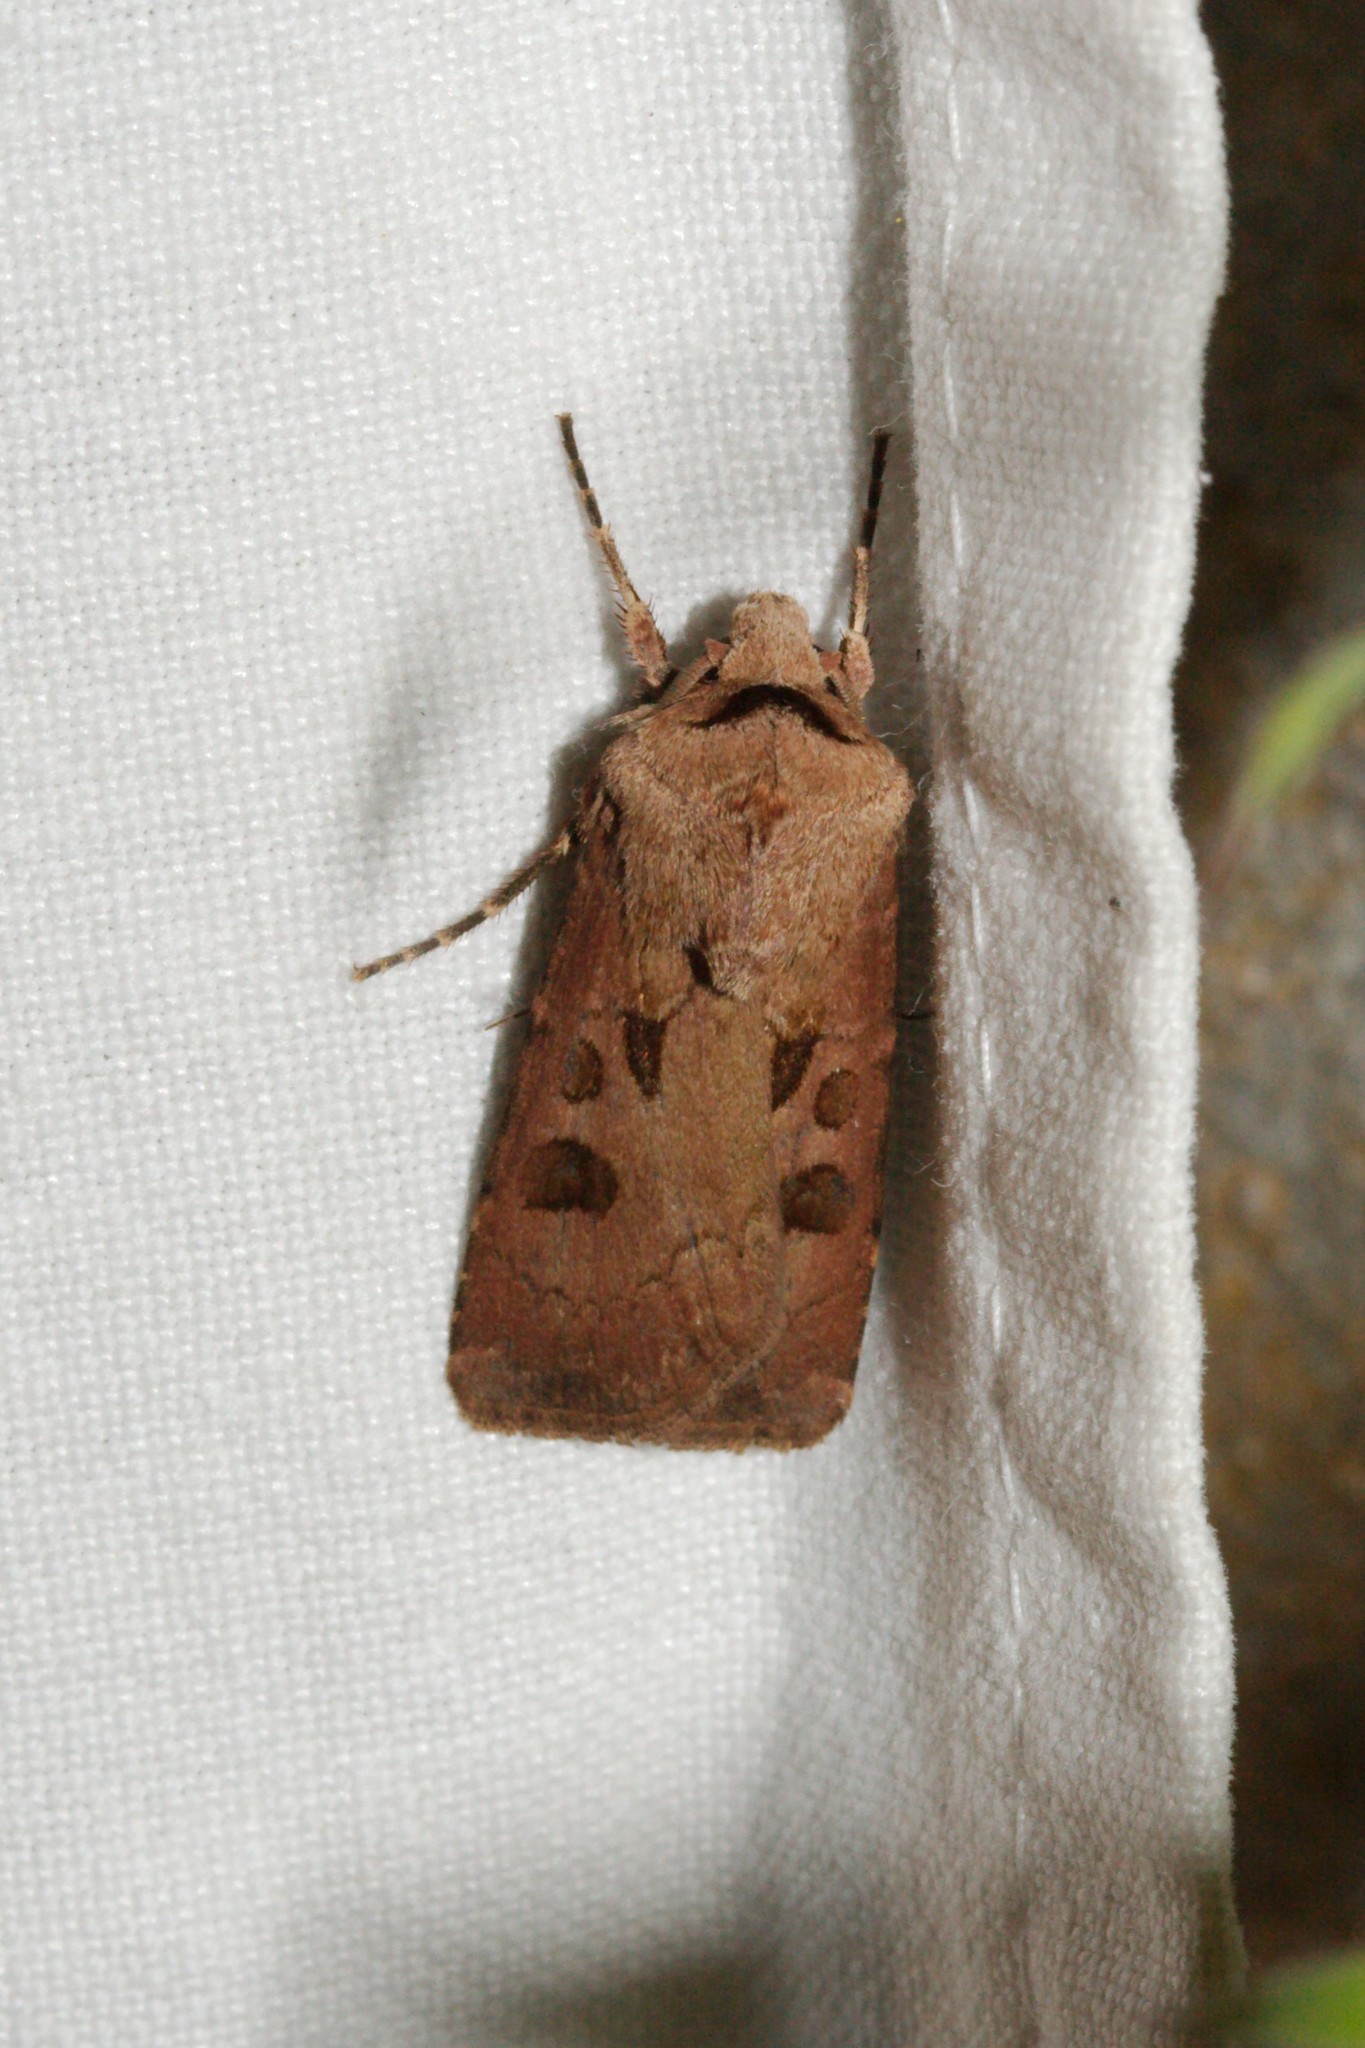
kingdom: Animalia
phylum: Arthropoda
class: Insecta
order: Lepidoptera
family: Noctuidae
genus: Agrotis
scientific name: Agrotis exclamationis
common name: Heart and dart
